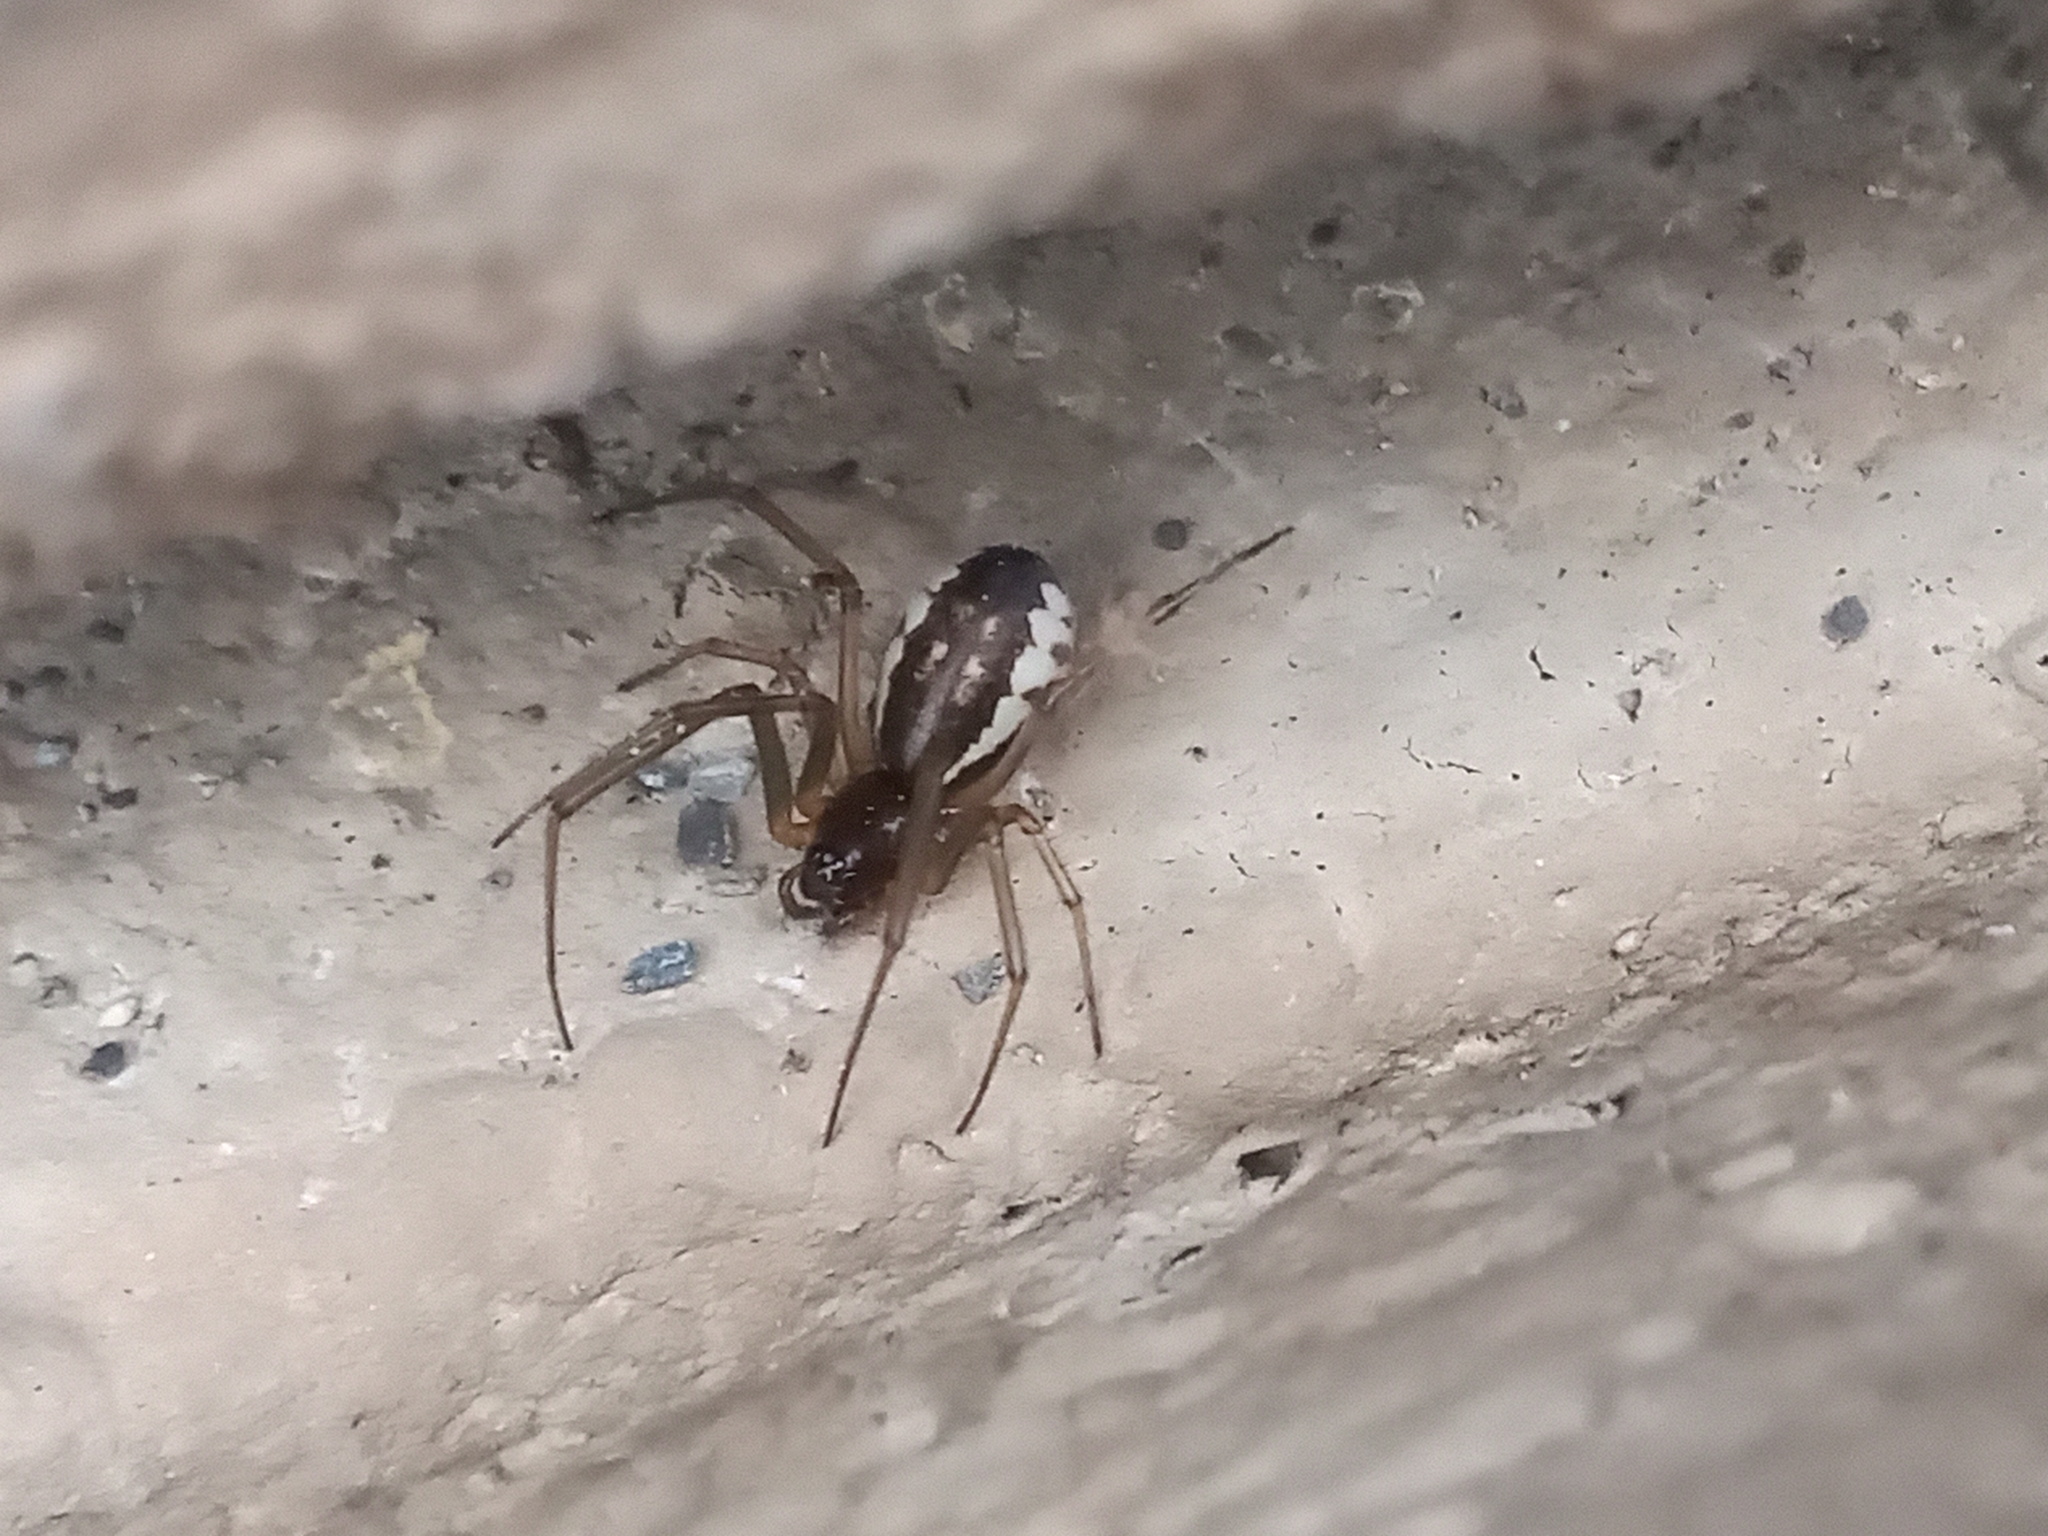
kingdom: Animalia
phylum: Arthropoda
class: Arachnida
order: Araneae
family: Linyphiidae
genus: Frontinella
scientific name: Frontinella pyramitela
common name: Bowl-and-doily spider
